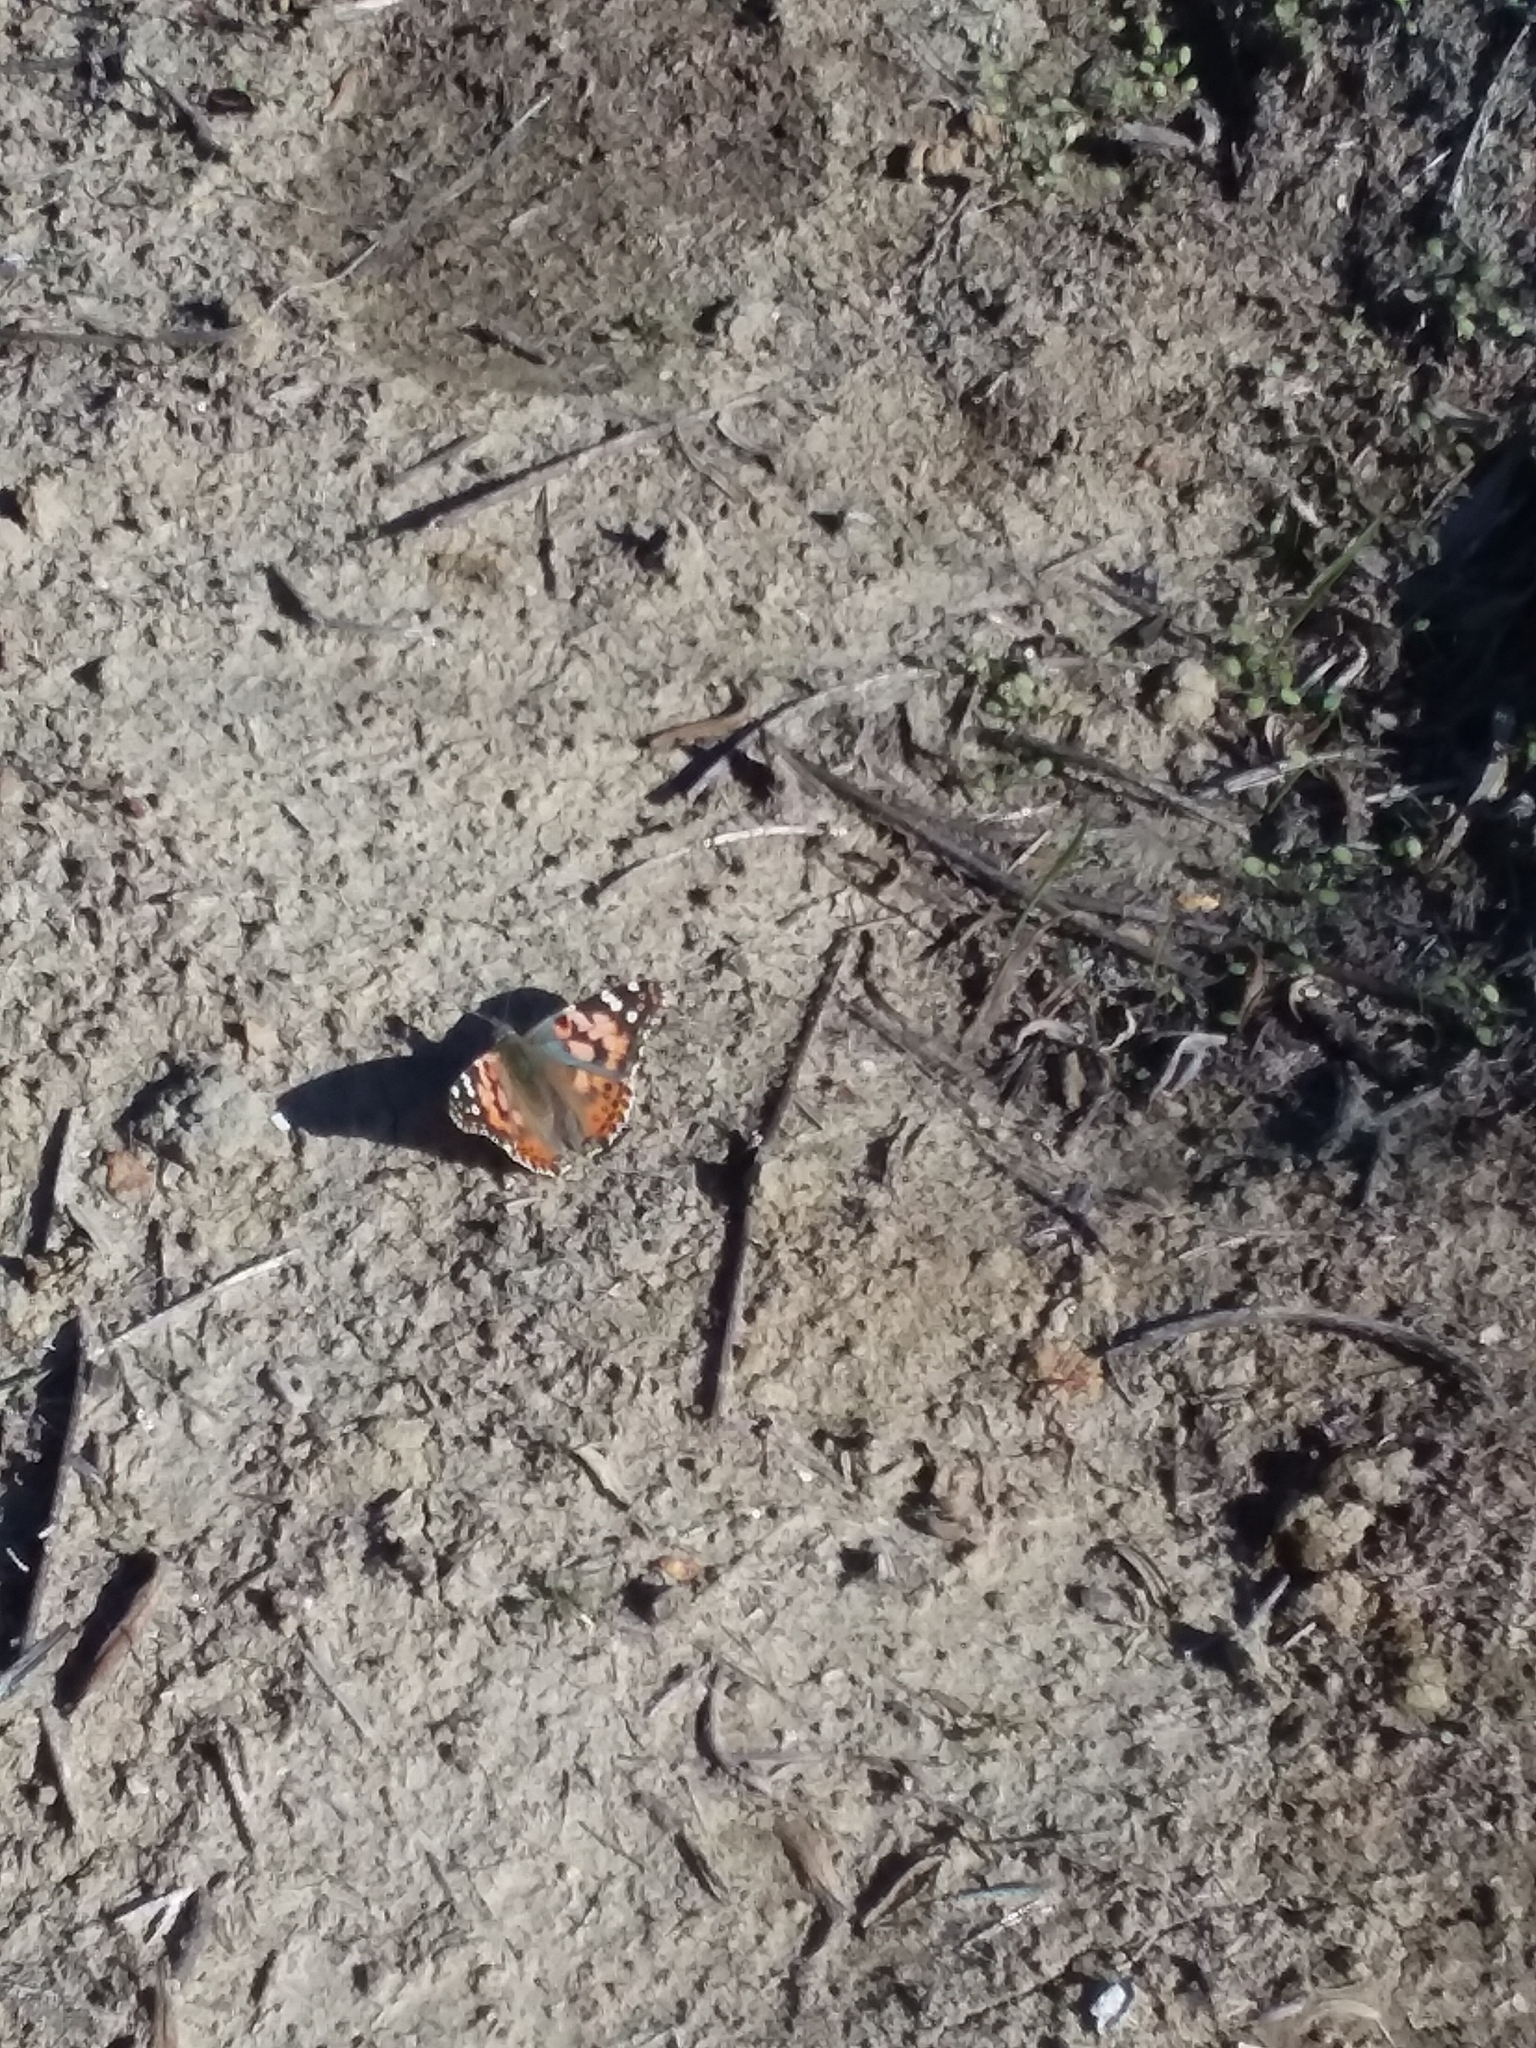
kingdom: Animalia
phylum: Arthropoda
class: Insecta
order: Lepidoptera
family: Nymphalidae
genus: Vanessa
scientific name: Vanessa cardui
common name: Painted lady
